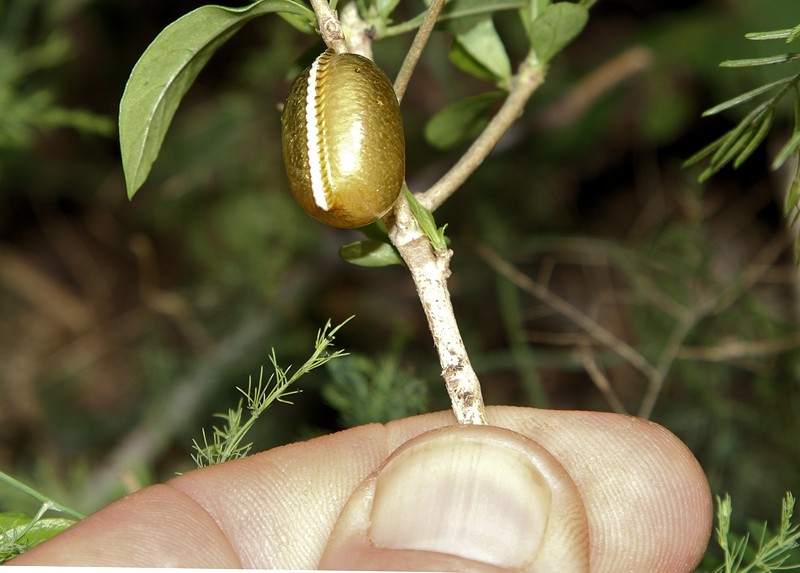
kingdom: Animalia
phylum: Arthropoda
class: Insecta
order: Mantodea
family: Hoplocoryphidae
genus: Hoplocoryphella
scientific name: Hoplocoryphella grandis
